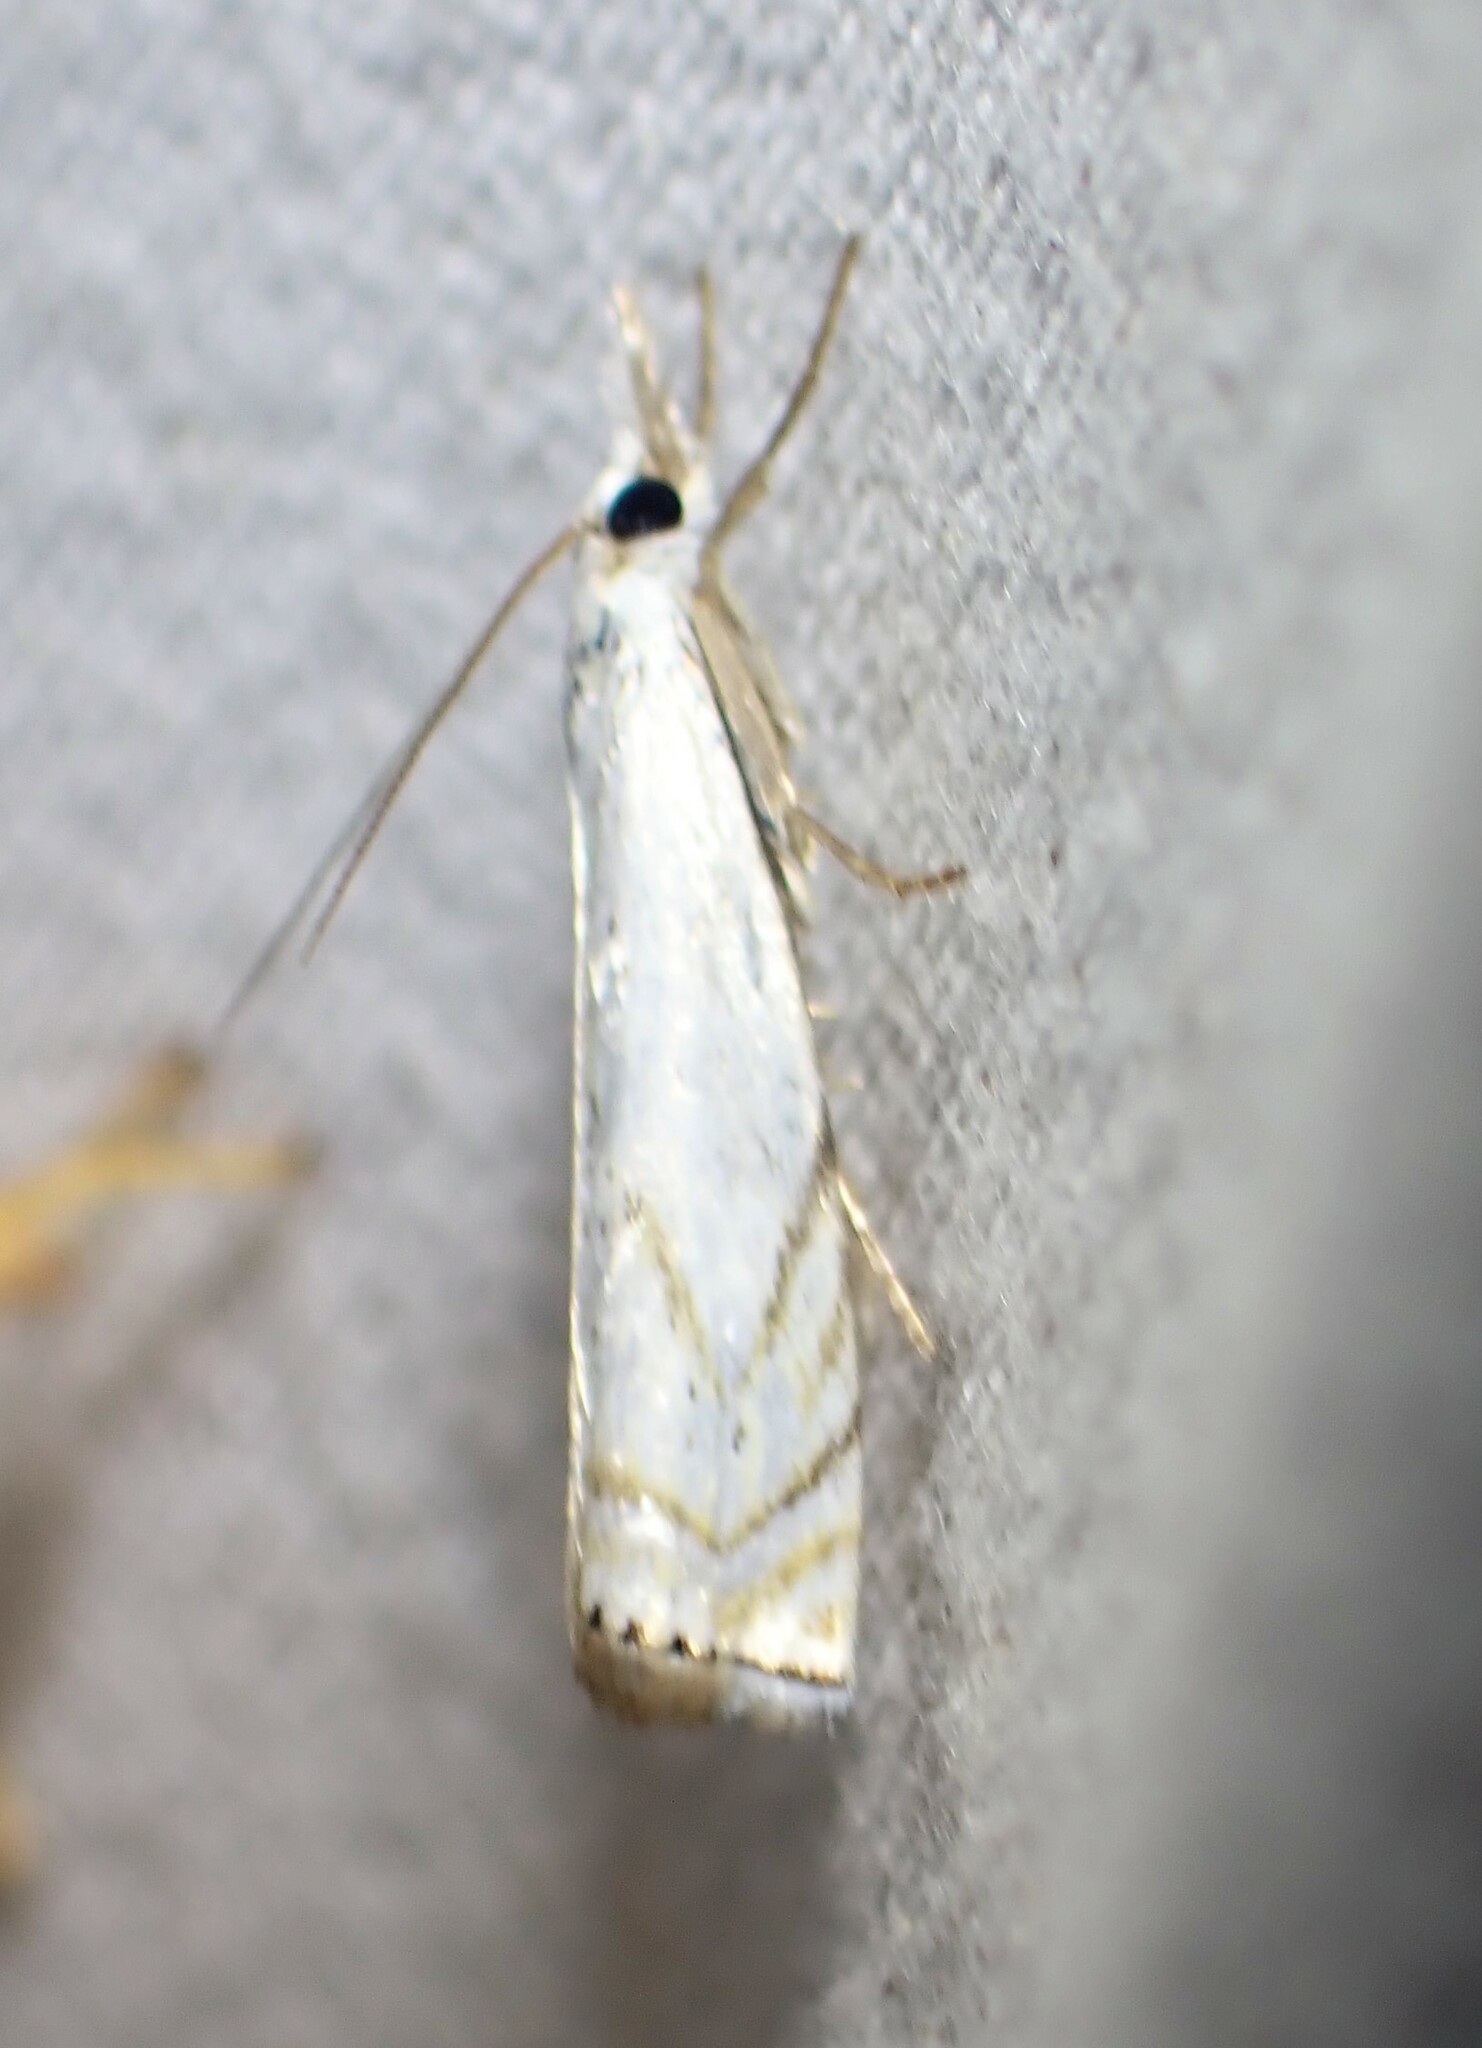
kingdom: Animalia
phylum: Arthropoda
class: Insecta
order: Lepidoptera
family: Crambidae
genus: Crambus
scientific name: Crambus albellus
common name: Small white grass-veneer
